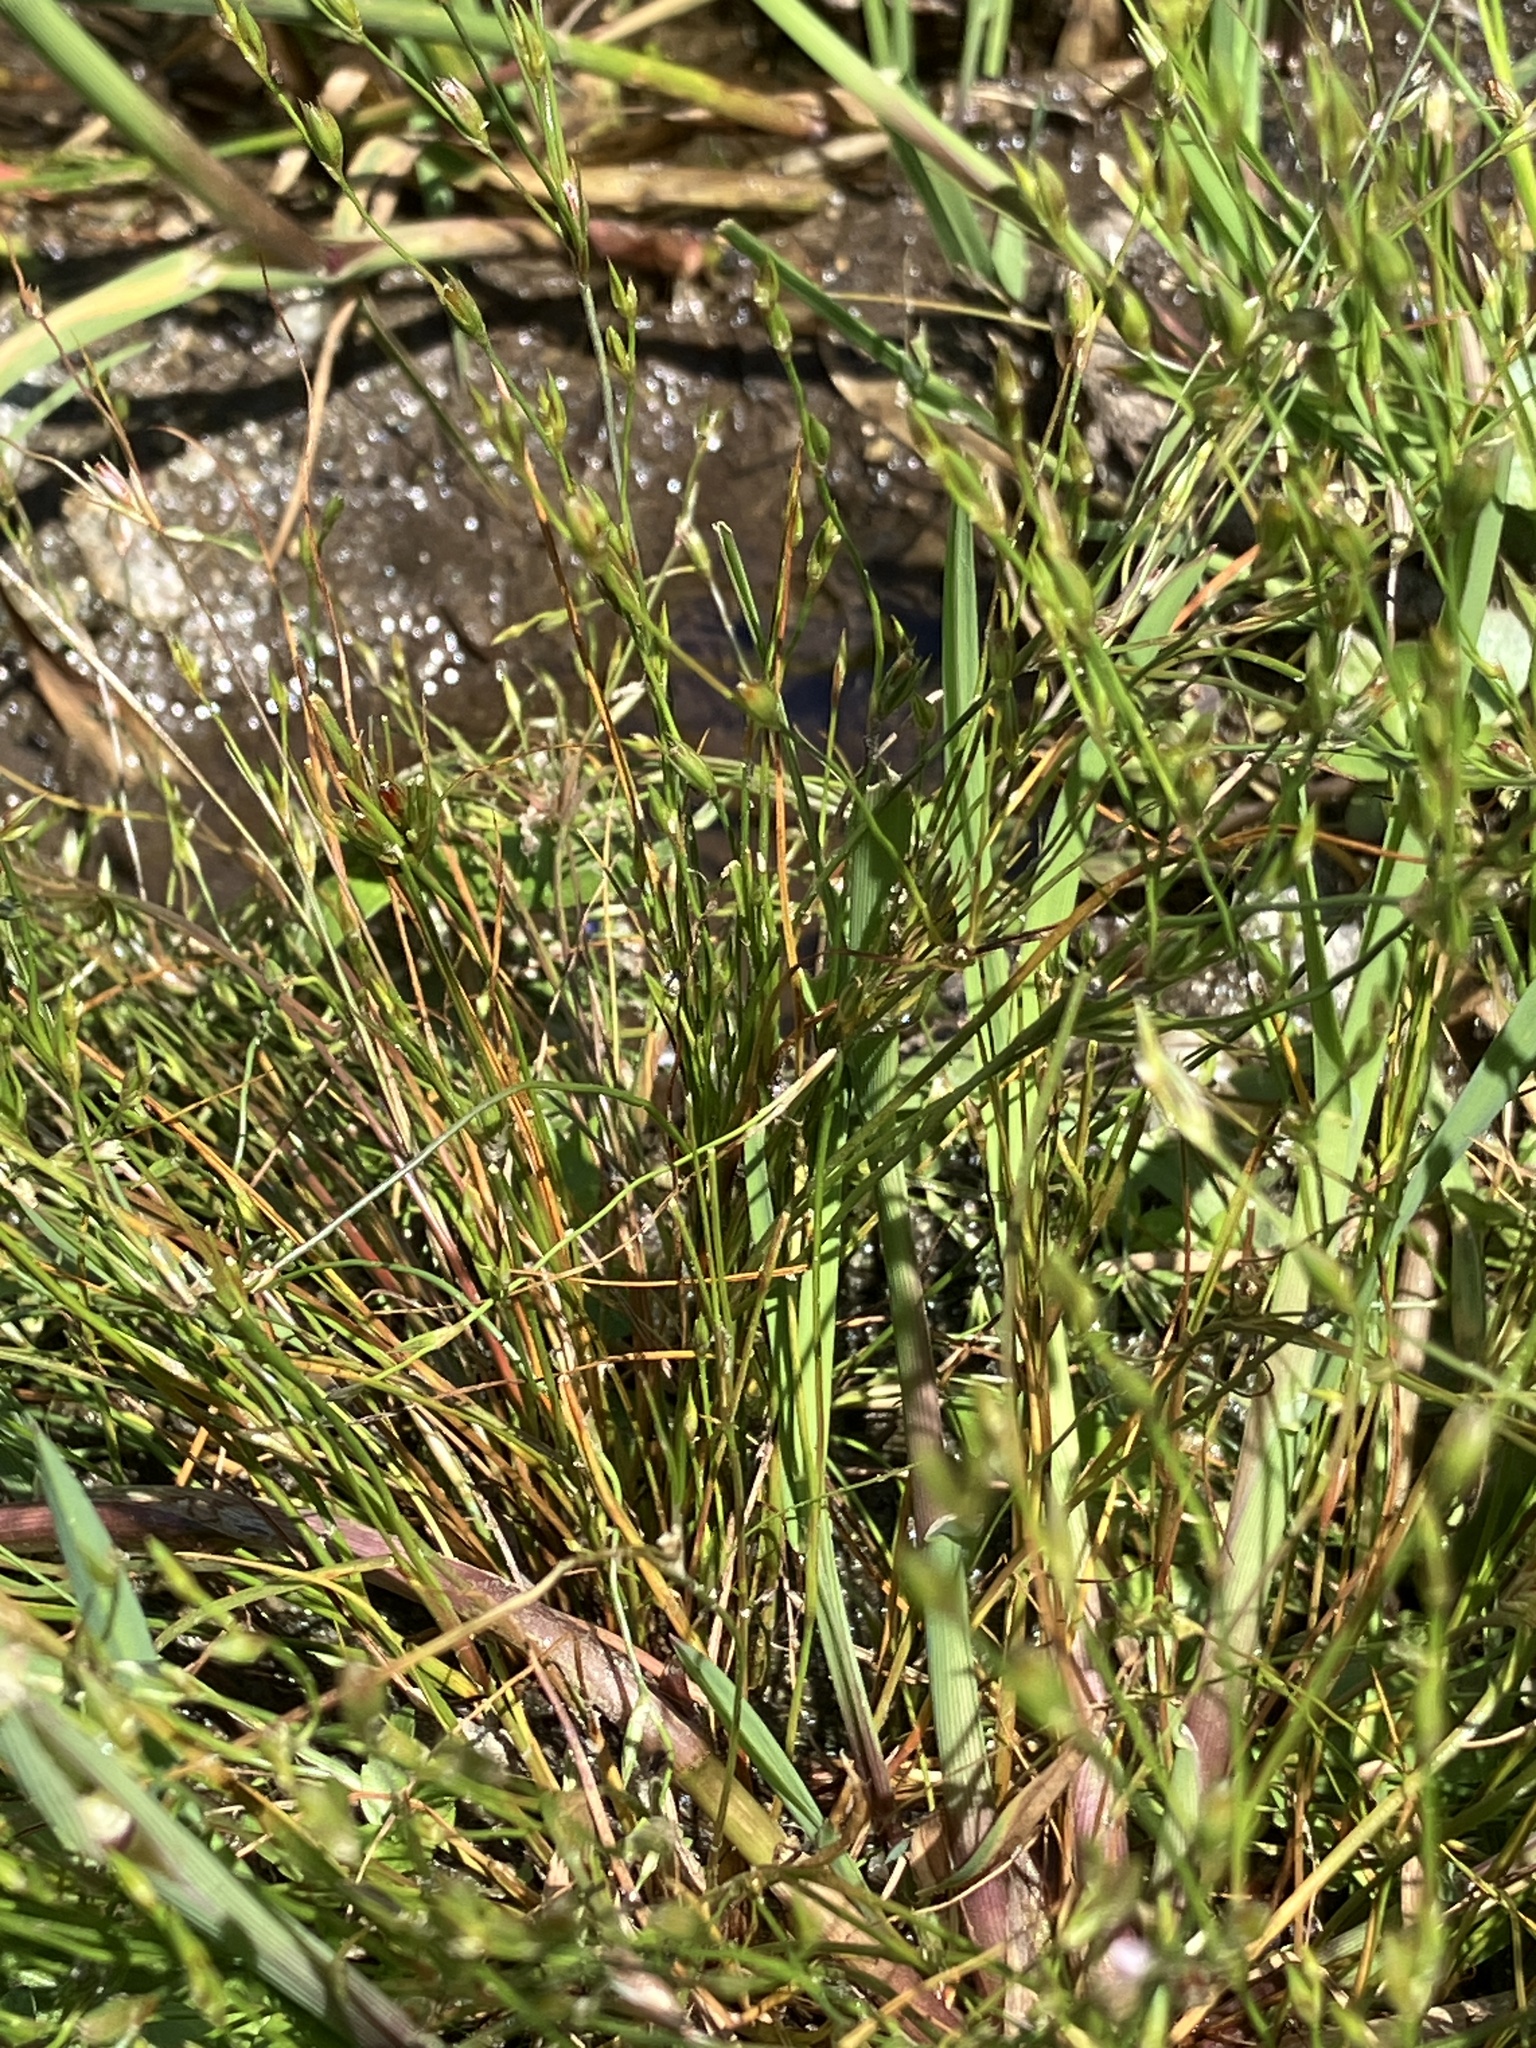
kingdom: Plantae
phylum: Tracheophyta
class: Liliopsida
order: Poales
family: Juncaceae
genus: Juncus
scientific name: Juncus bufonius
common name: Toad rush
